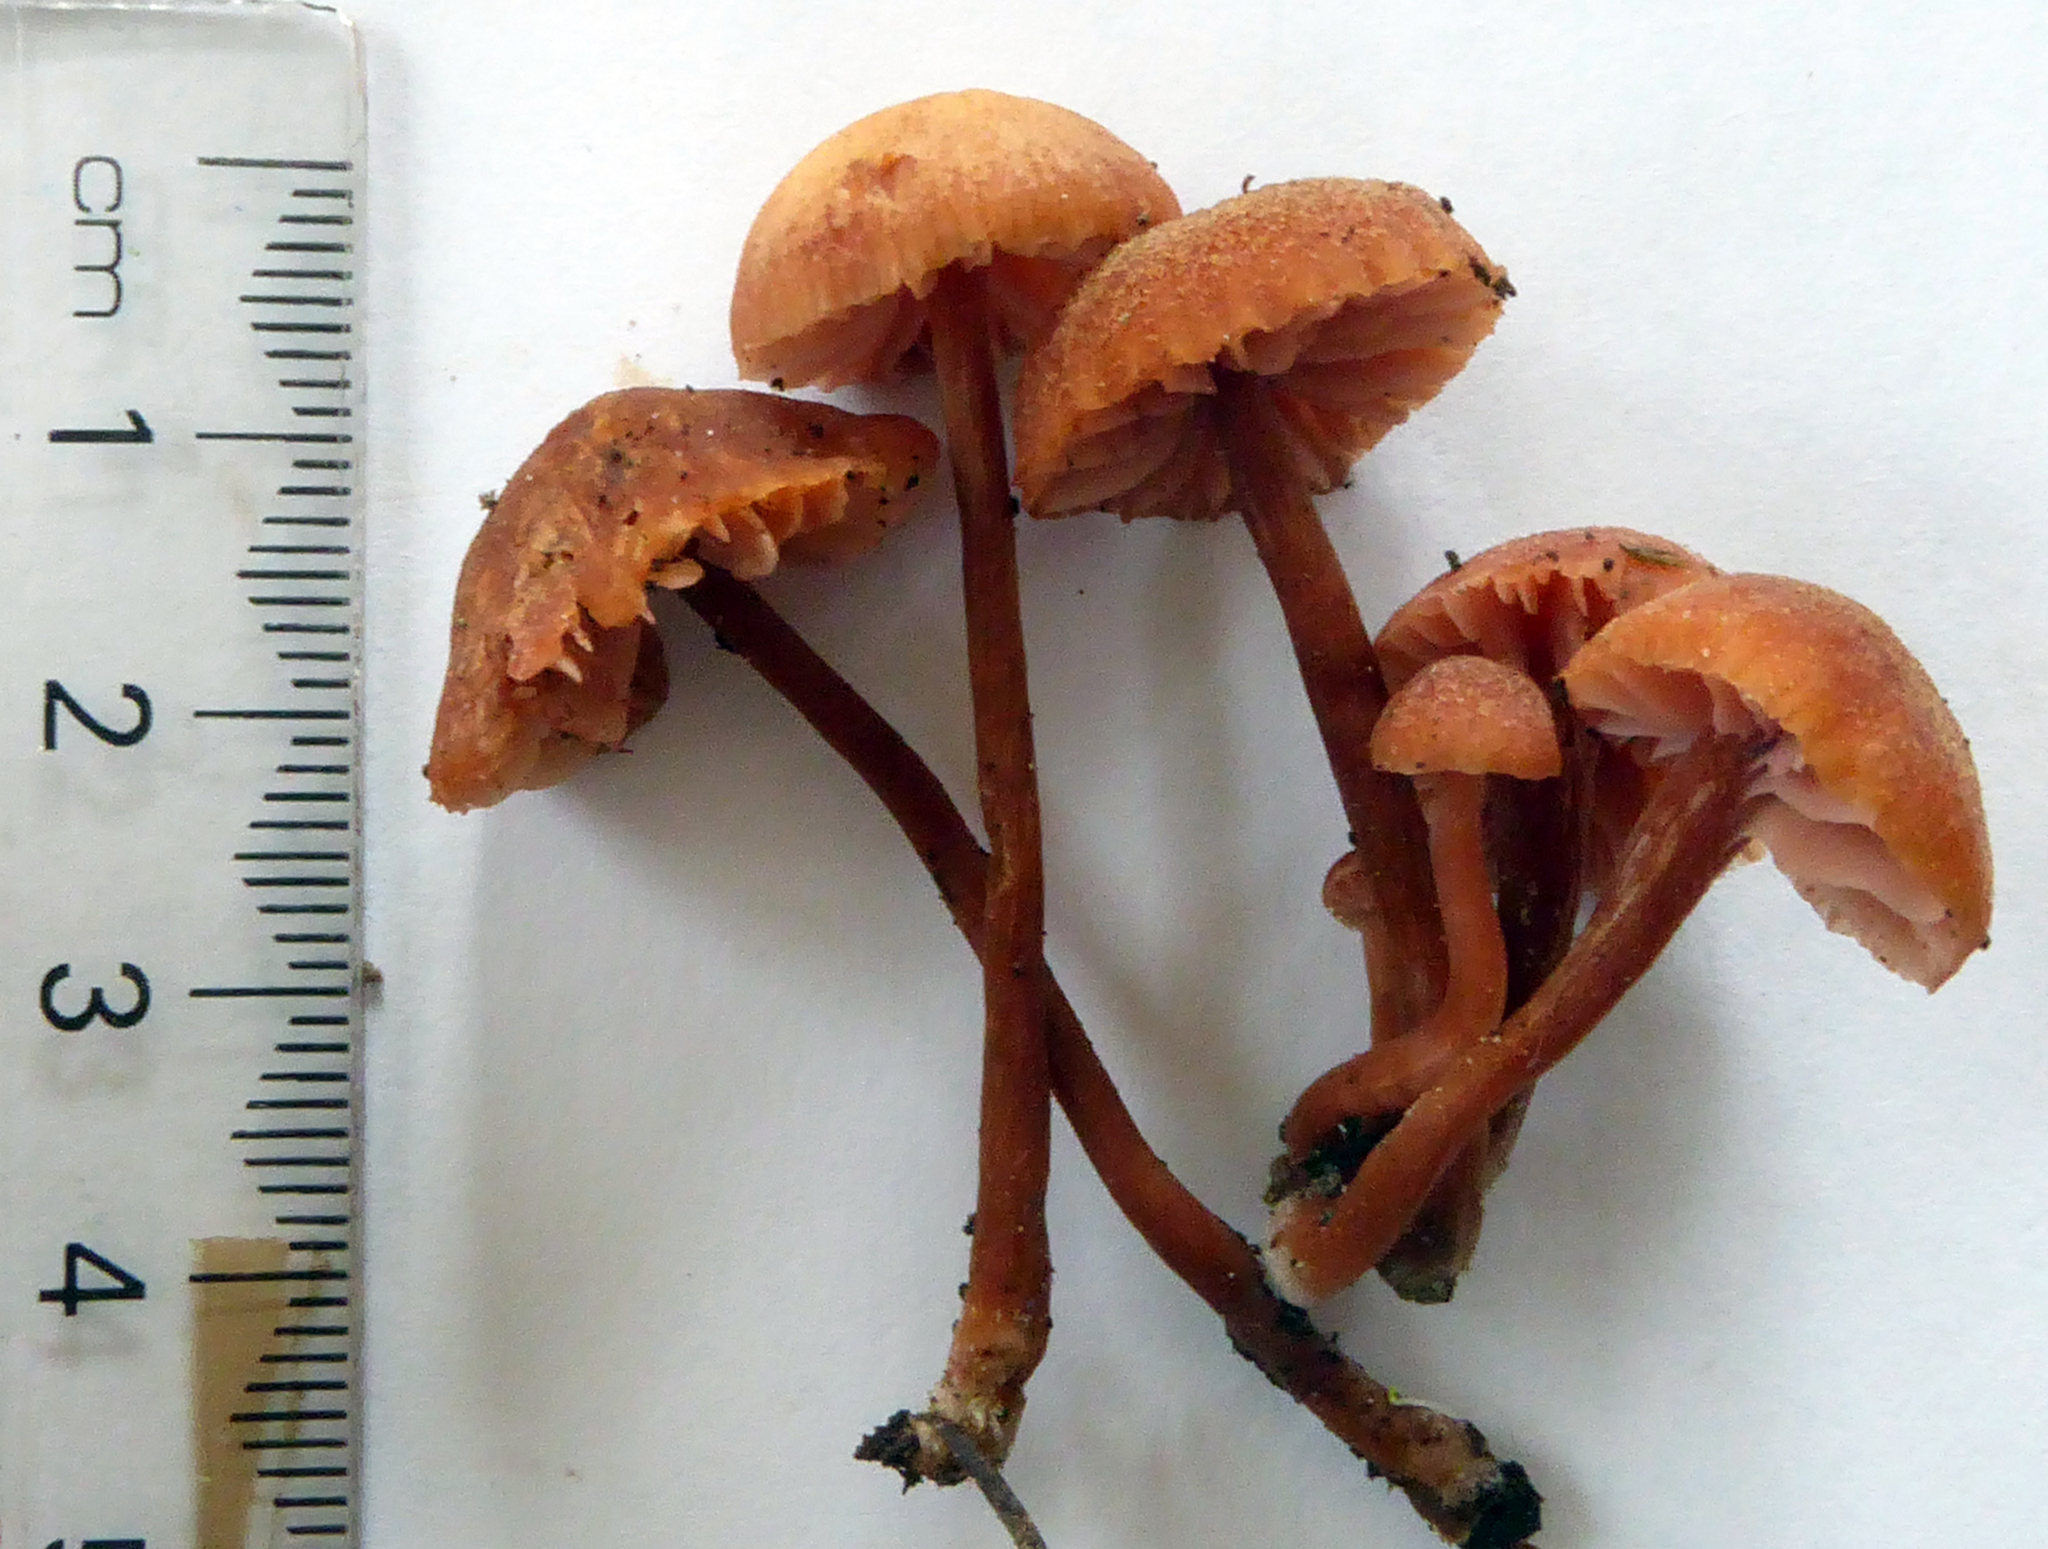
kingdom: Fungi
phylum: Basidiomycota
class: Agaricomycetes
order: Agaricales
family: Hydnangiaceae
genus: Laccaria
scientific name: Laccaria paraphysata
